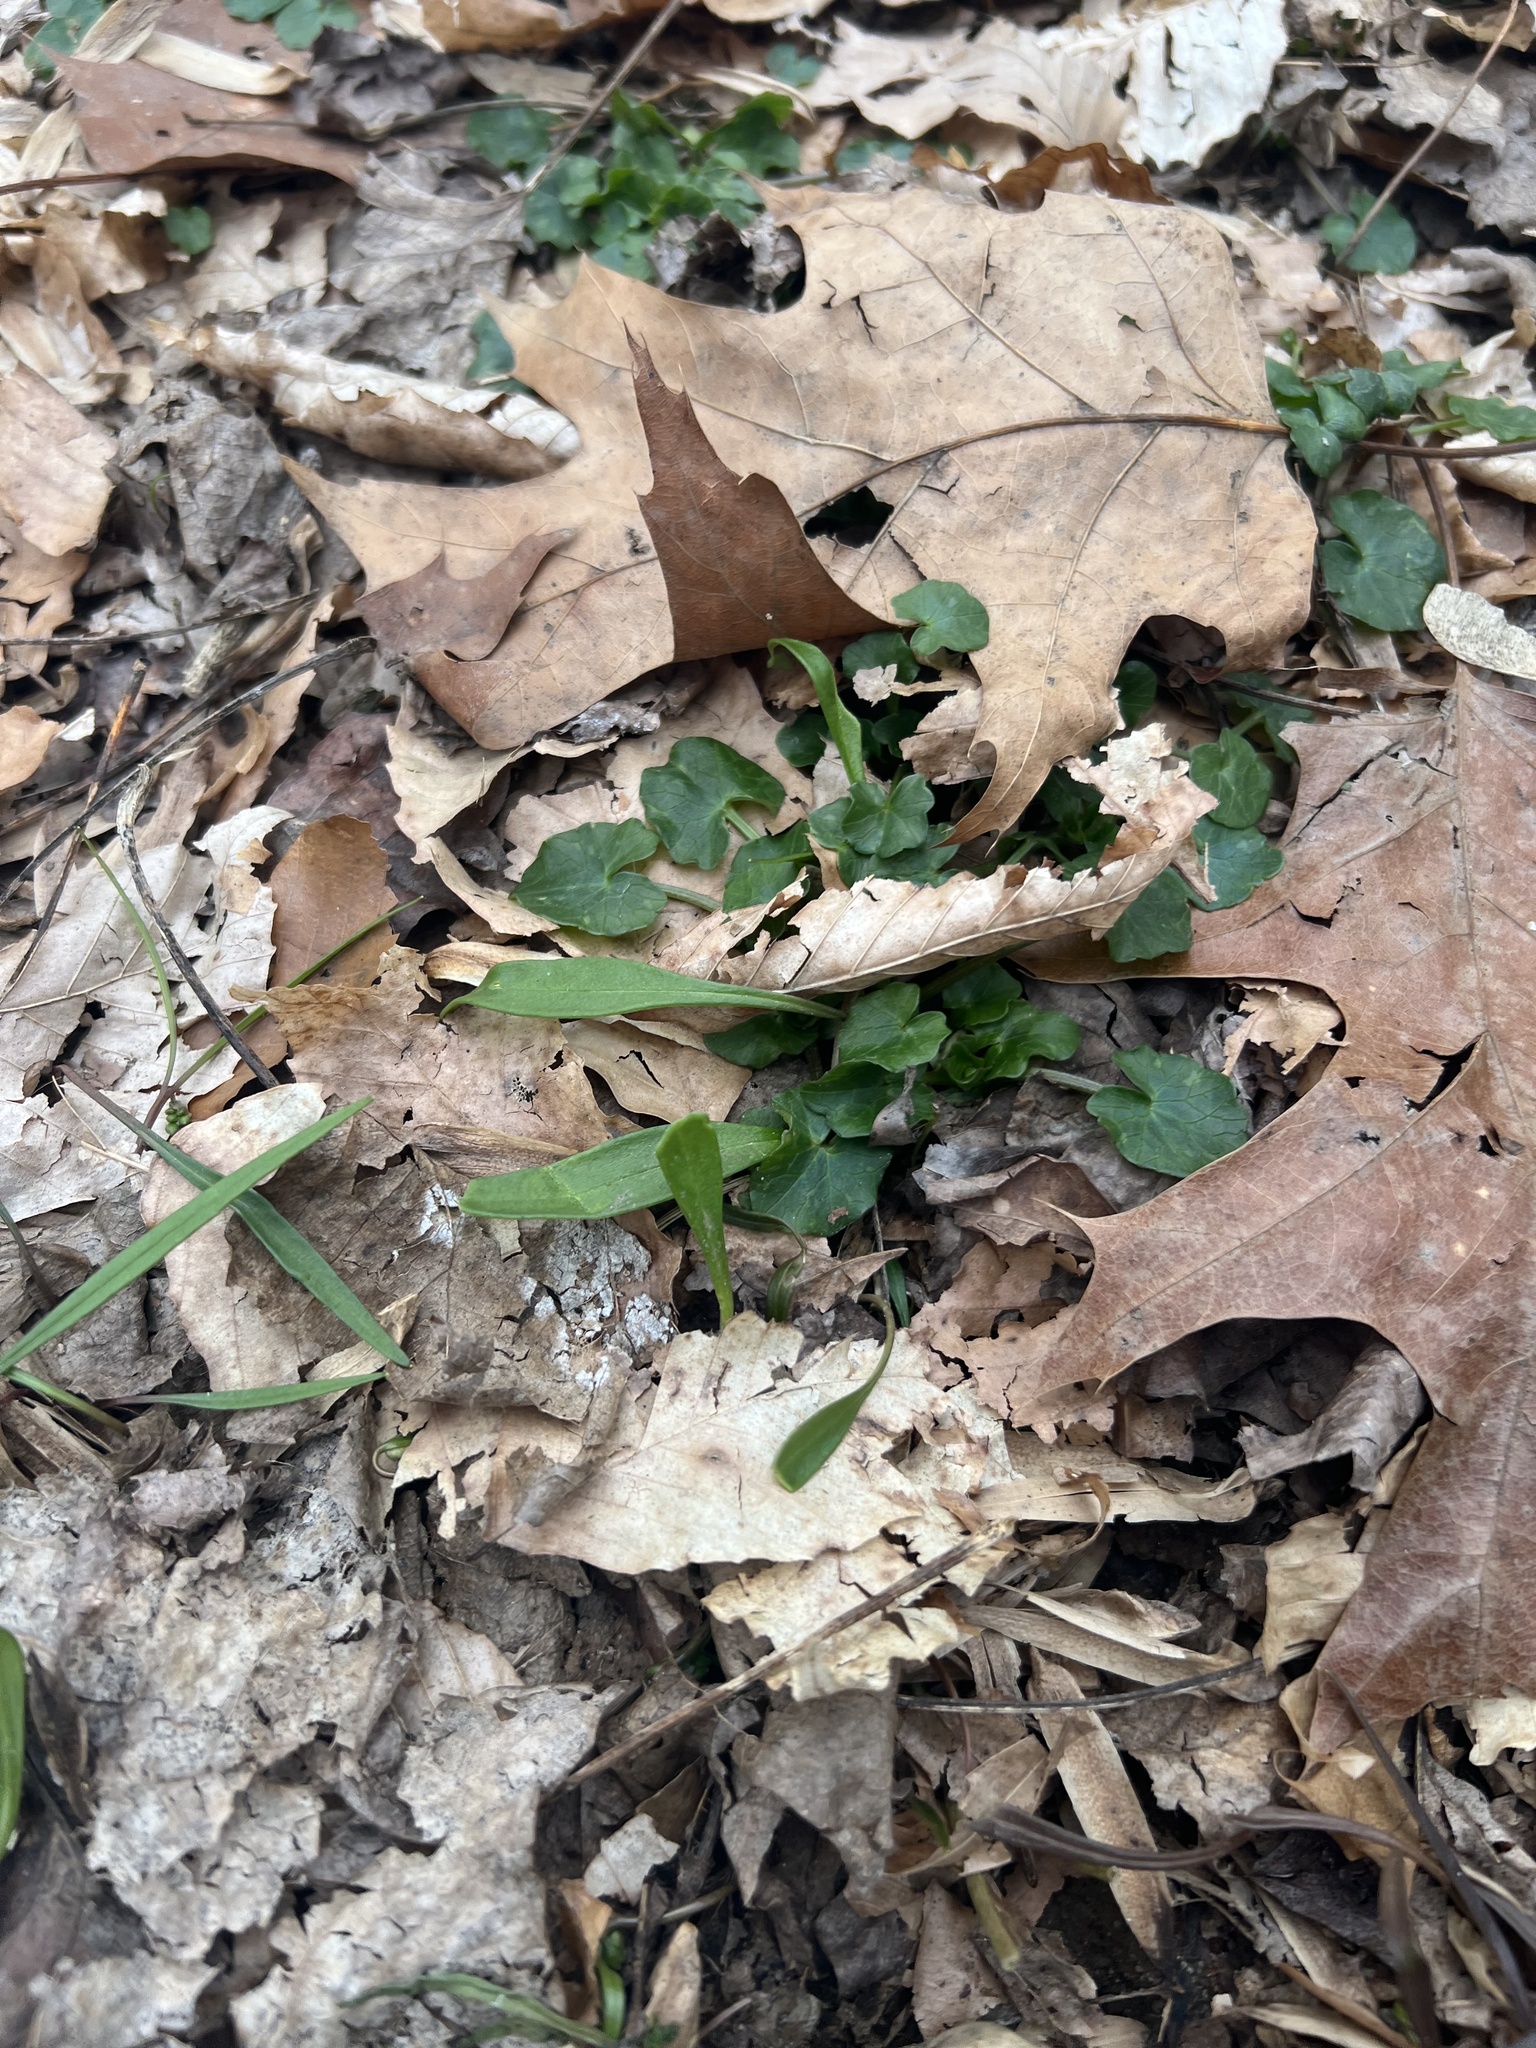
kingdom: Plantae
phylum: Tracheophyta
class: Magnoliopsida
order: Caryophyllales
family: Montiaceae
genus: Claytonia
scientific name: Claytonia virginica
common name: Virginia springbeauty
